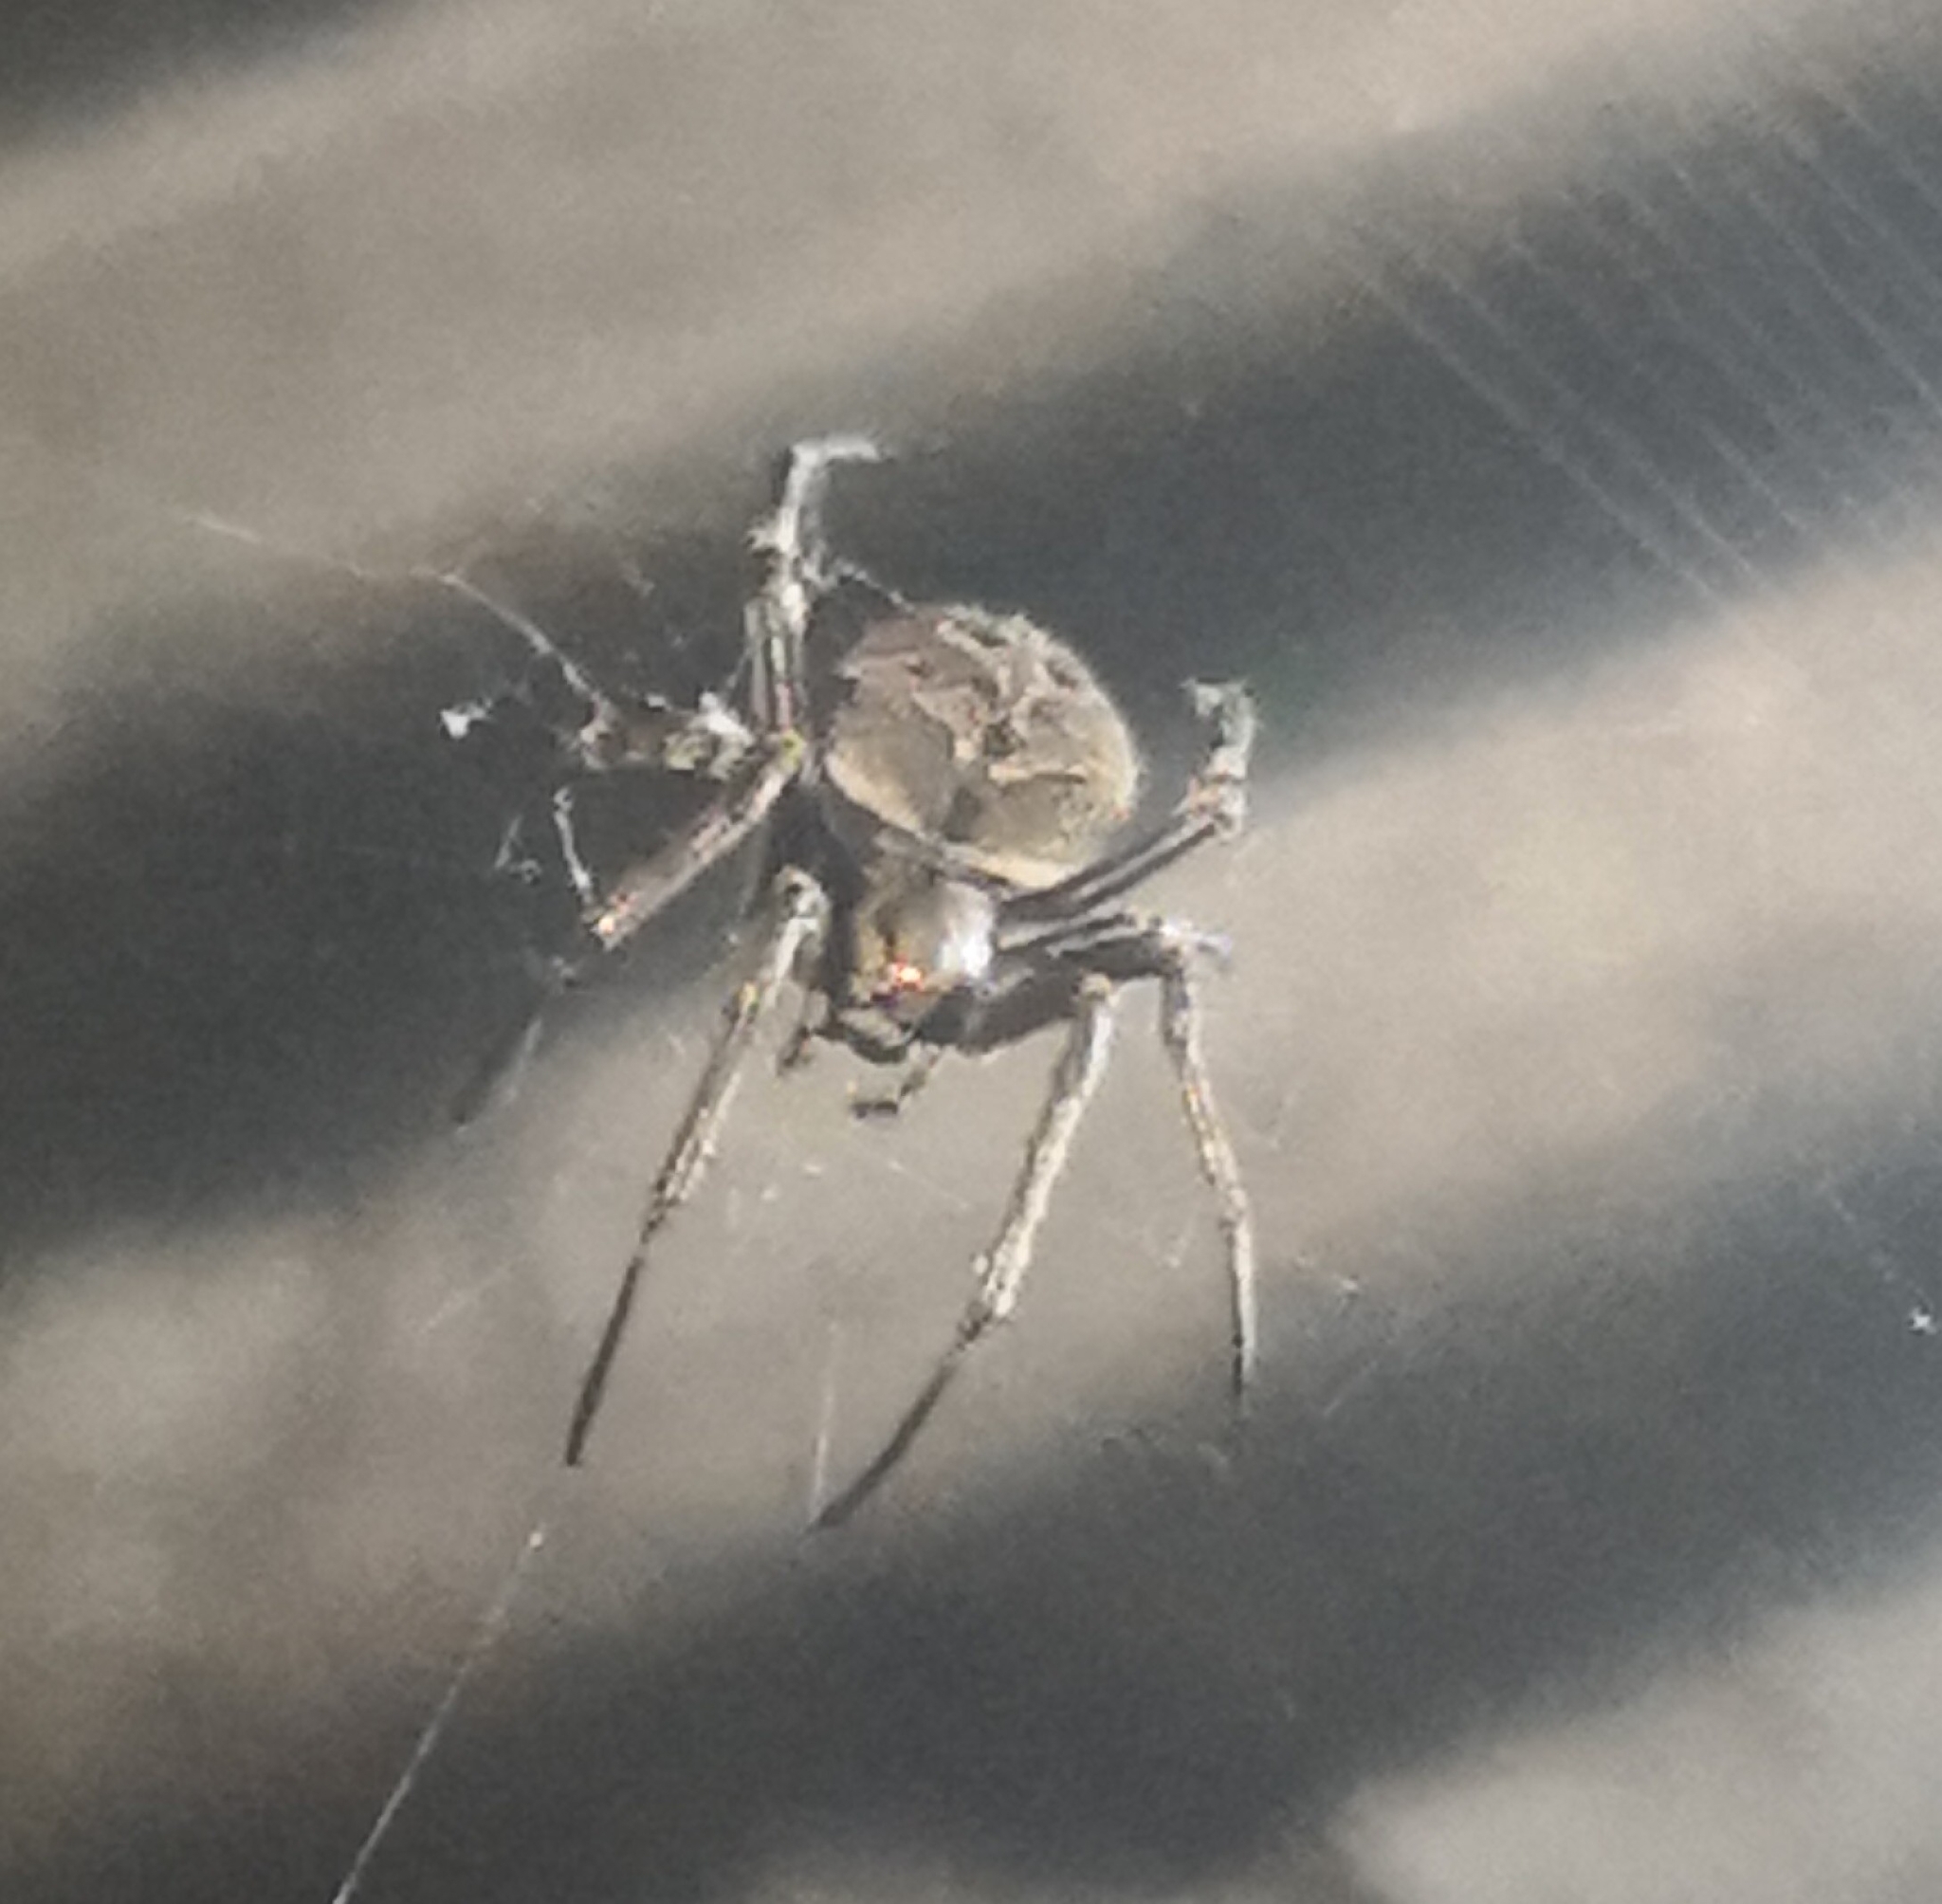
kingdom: Animalia
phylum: Arthropoda
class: Arachnida
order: Araneae
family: Araneidae
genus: Neoscona
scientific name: Neoscona nautica
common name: Orb weavers
